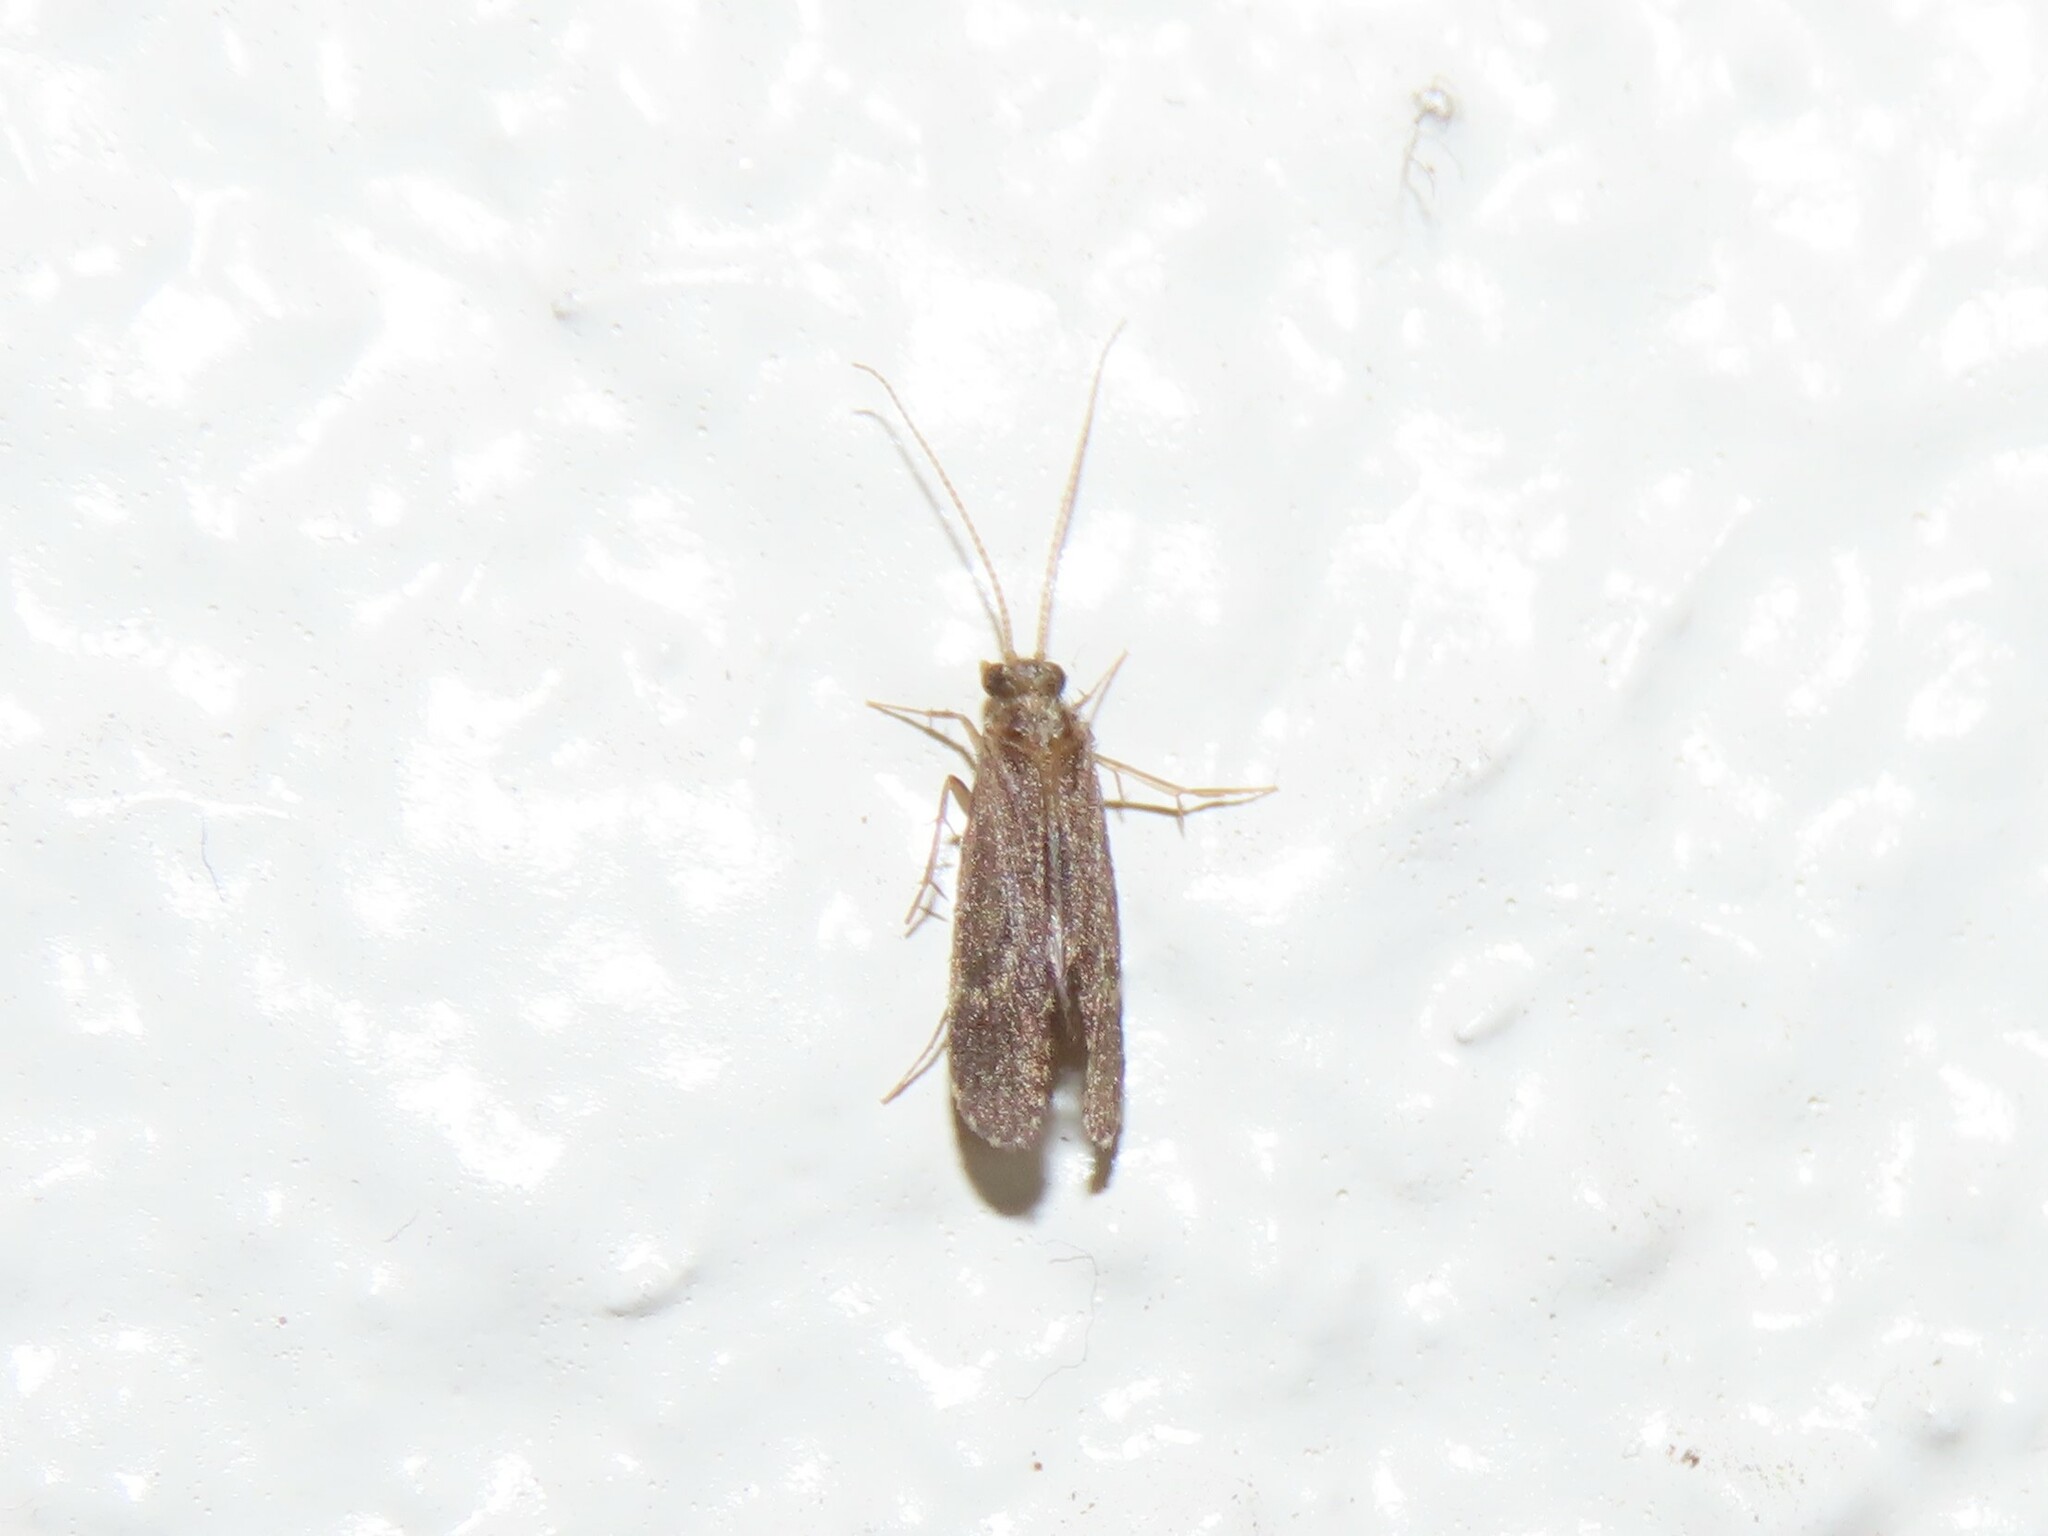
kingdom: Animalia
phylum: Arthropoda
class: Insecta
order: Trichoptera
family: Polycentropodidae
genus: Cyrnellus
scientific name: Cyrnellus fraternus
